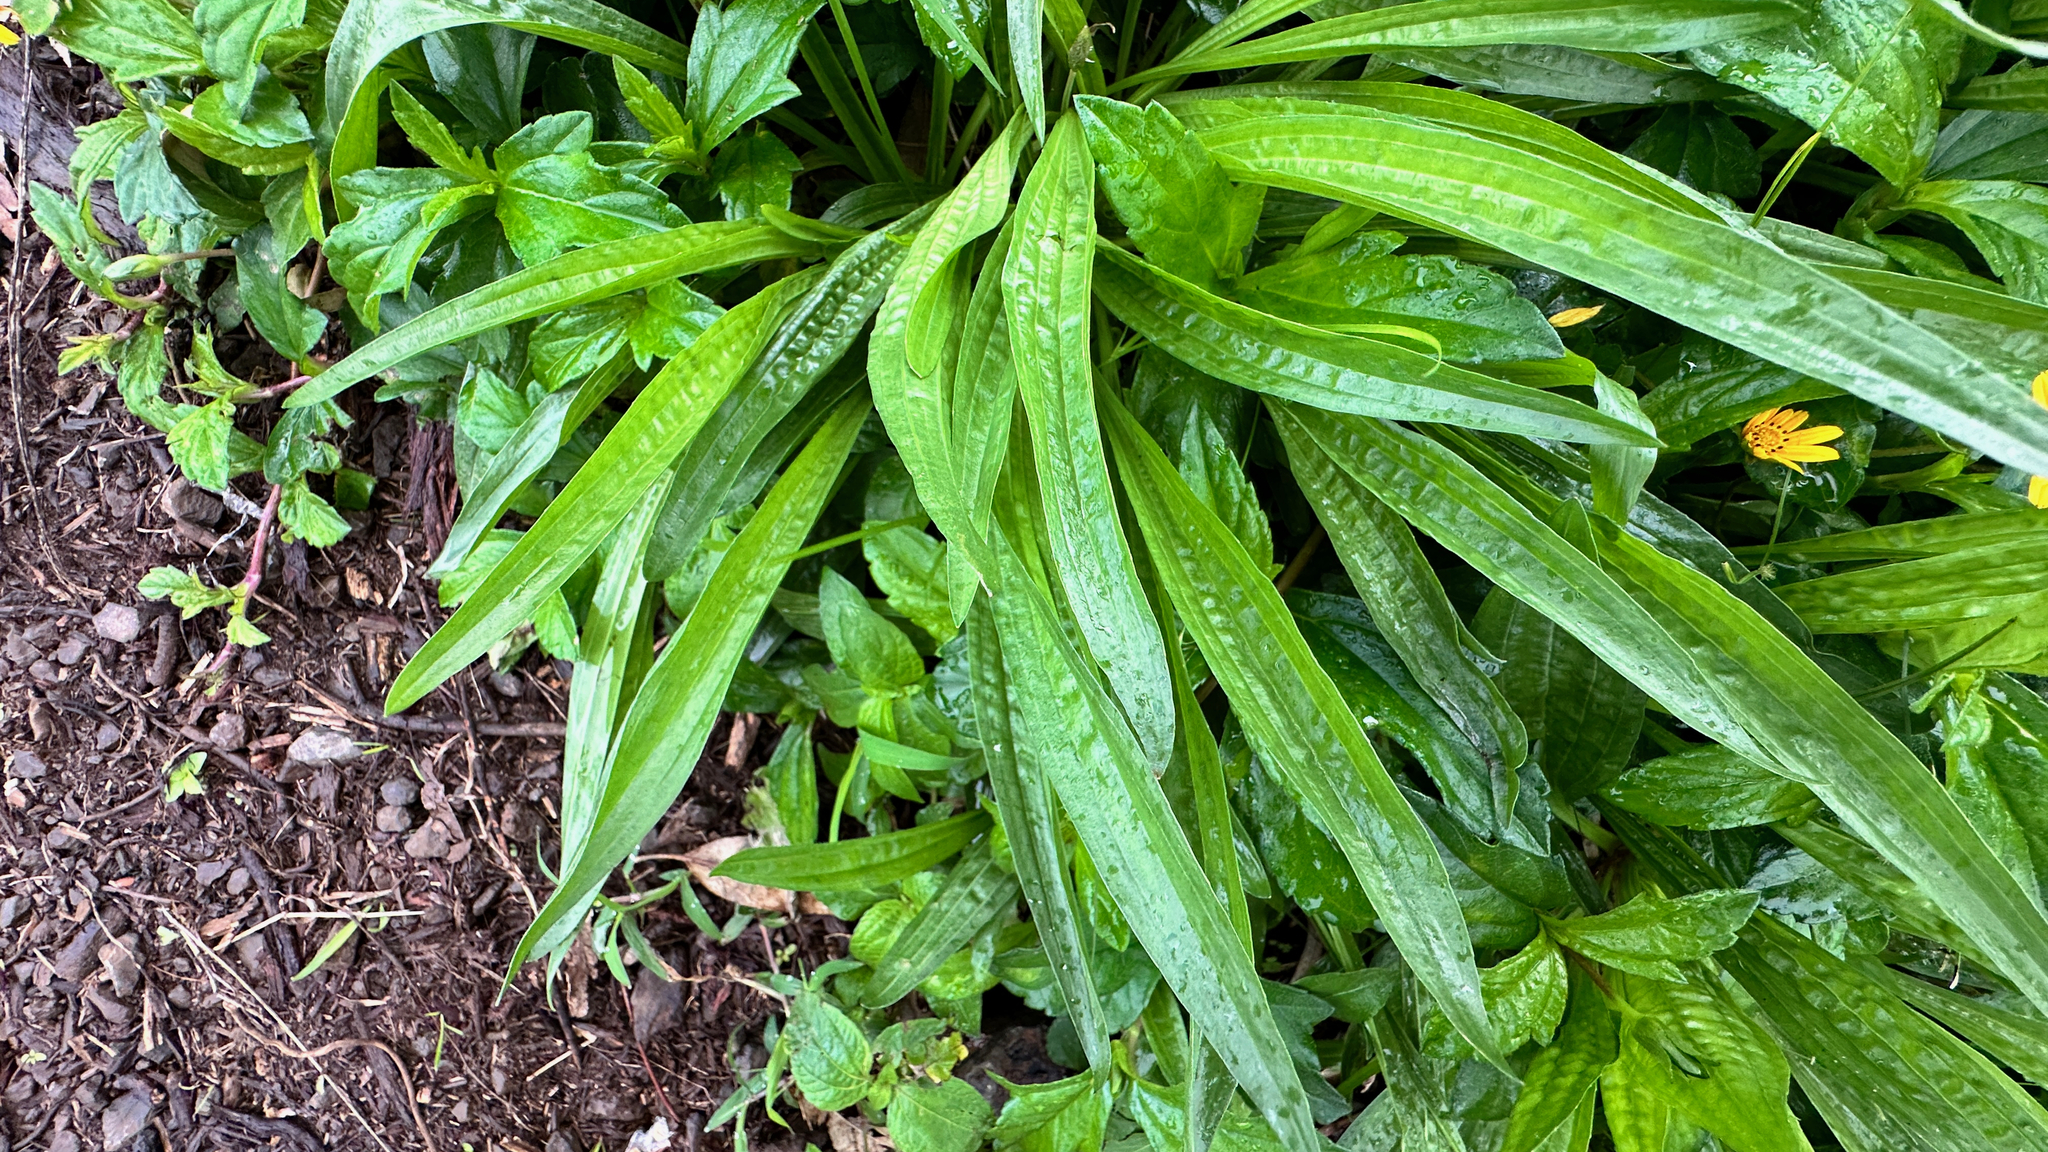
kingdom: Plantae
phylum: Tracheophyta
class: Magnoliopsida
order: Lamiales
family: Plantaginaceae
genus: Plantago
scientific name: Plantago lanceolata
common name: Ribwort plantain
